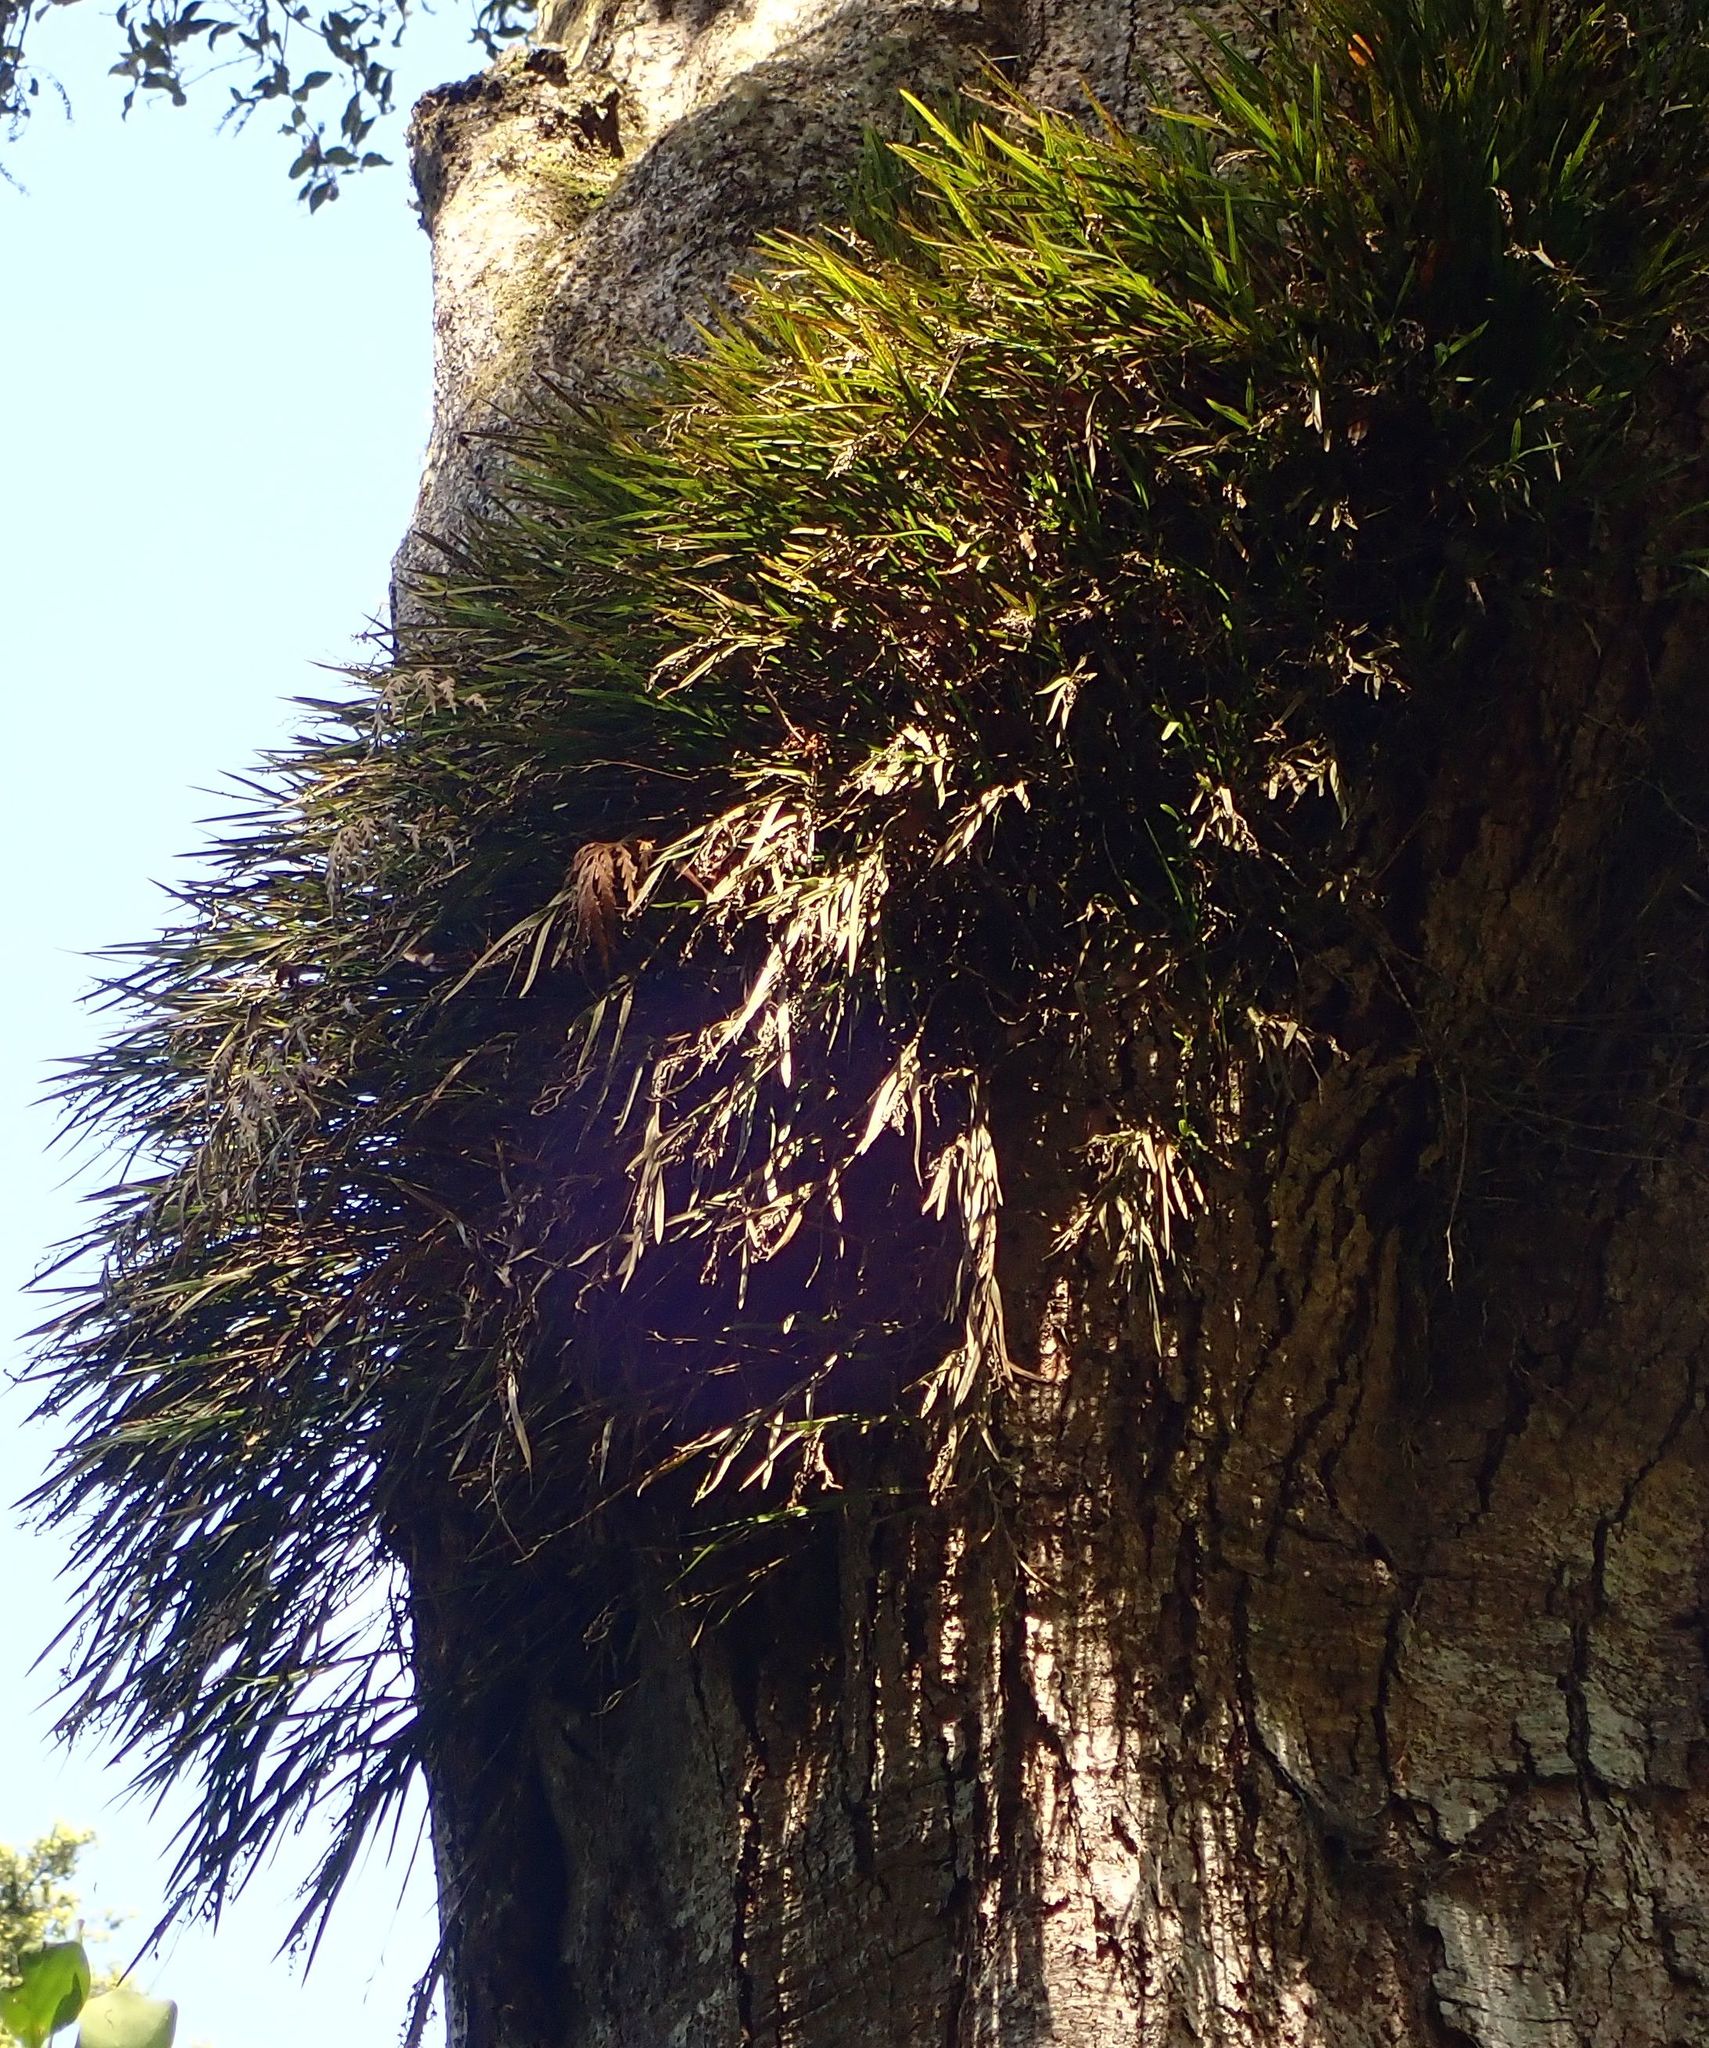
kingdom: Plantae
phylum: Tracheophyta
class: Liliopsida
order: Asparagales
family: Orchidaceae
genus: Earina
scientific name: Earina mucronata
